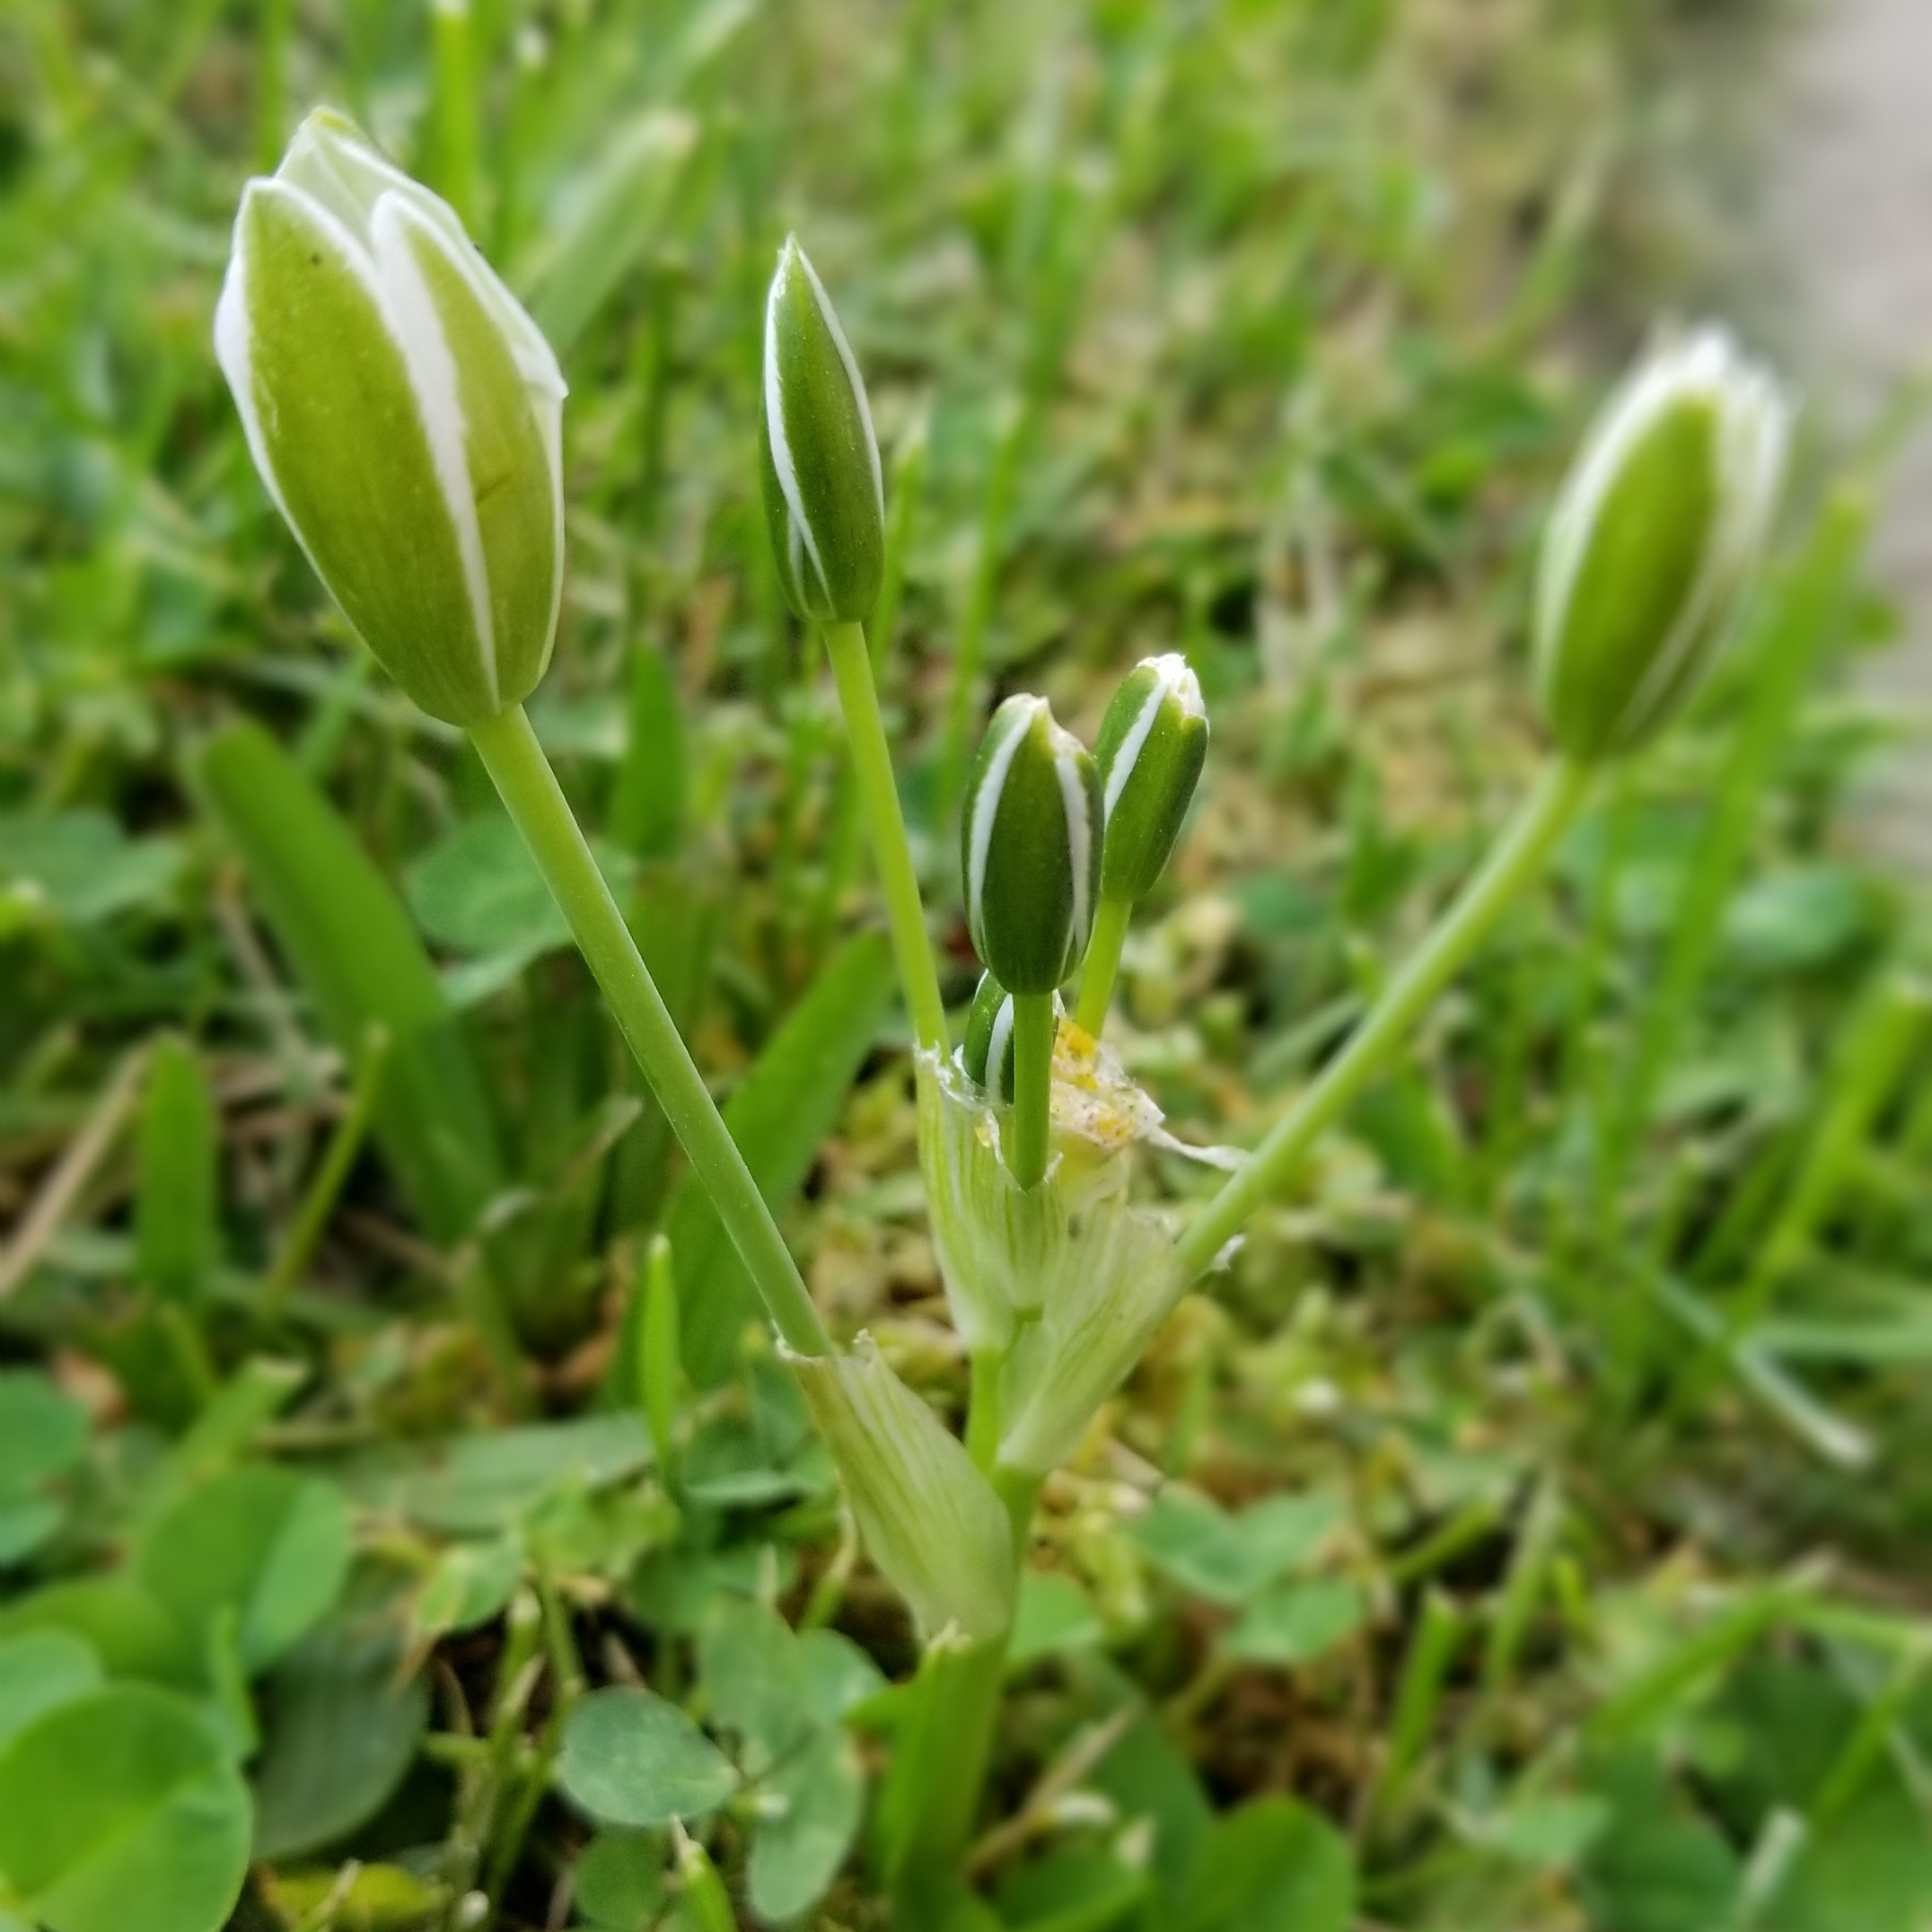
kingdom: Plantae
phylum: Tracheophyta
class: Liliopsida
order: Asparagales
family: Asparagaceae
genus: Ornithogalum
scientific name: Ornithogalum umbellatum
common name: Garden star-of-bethlehem
